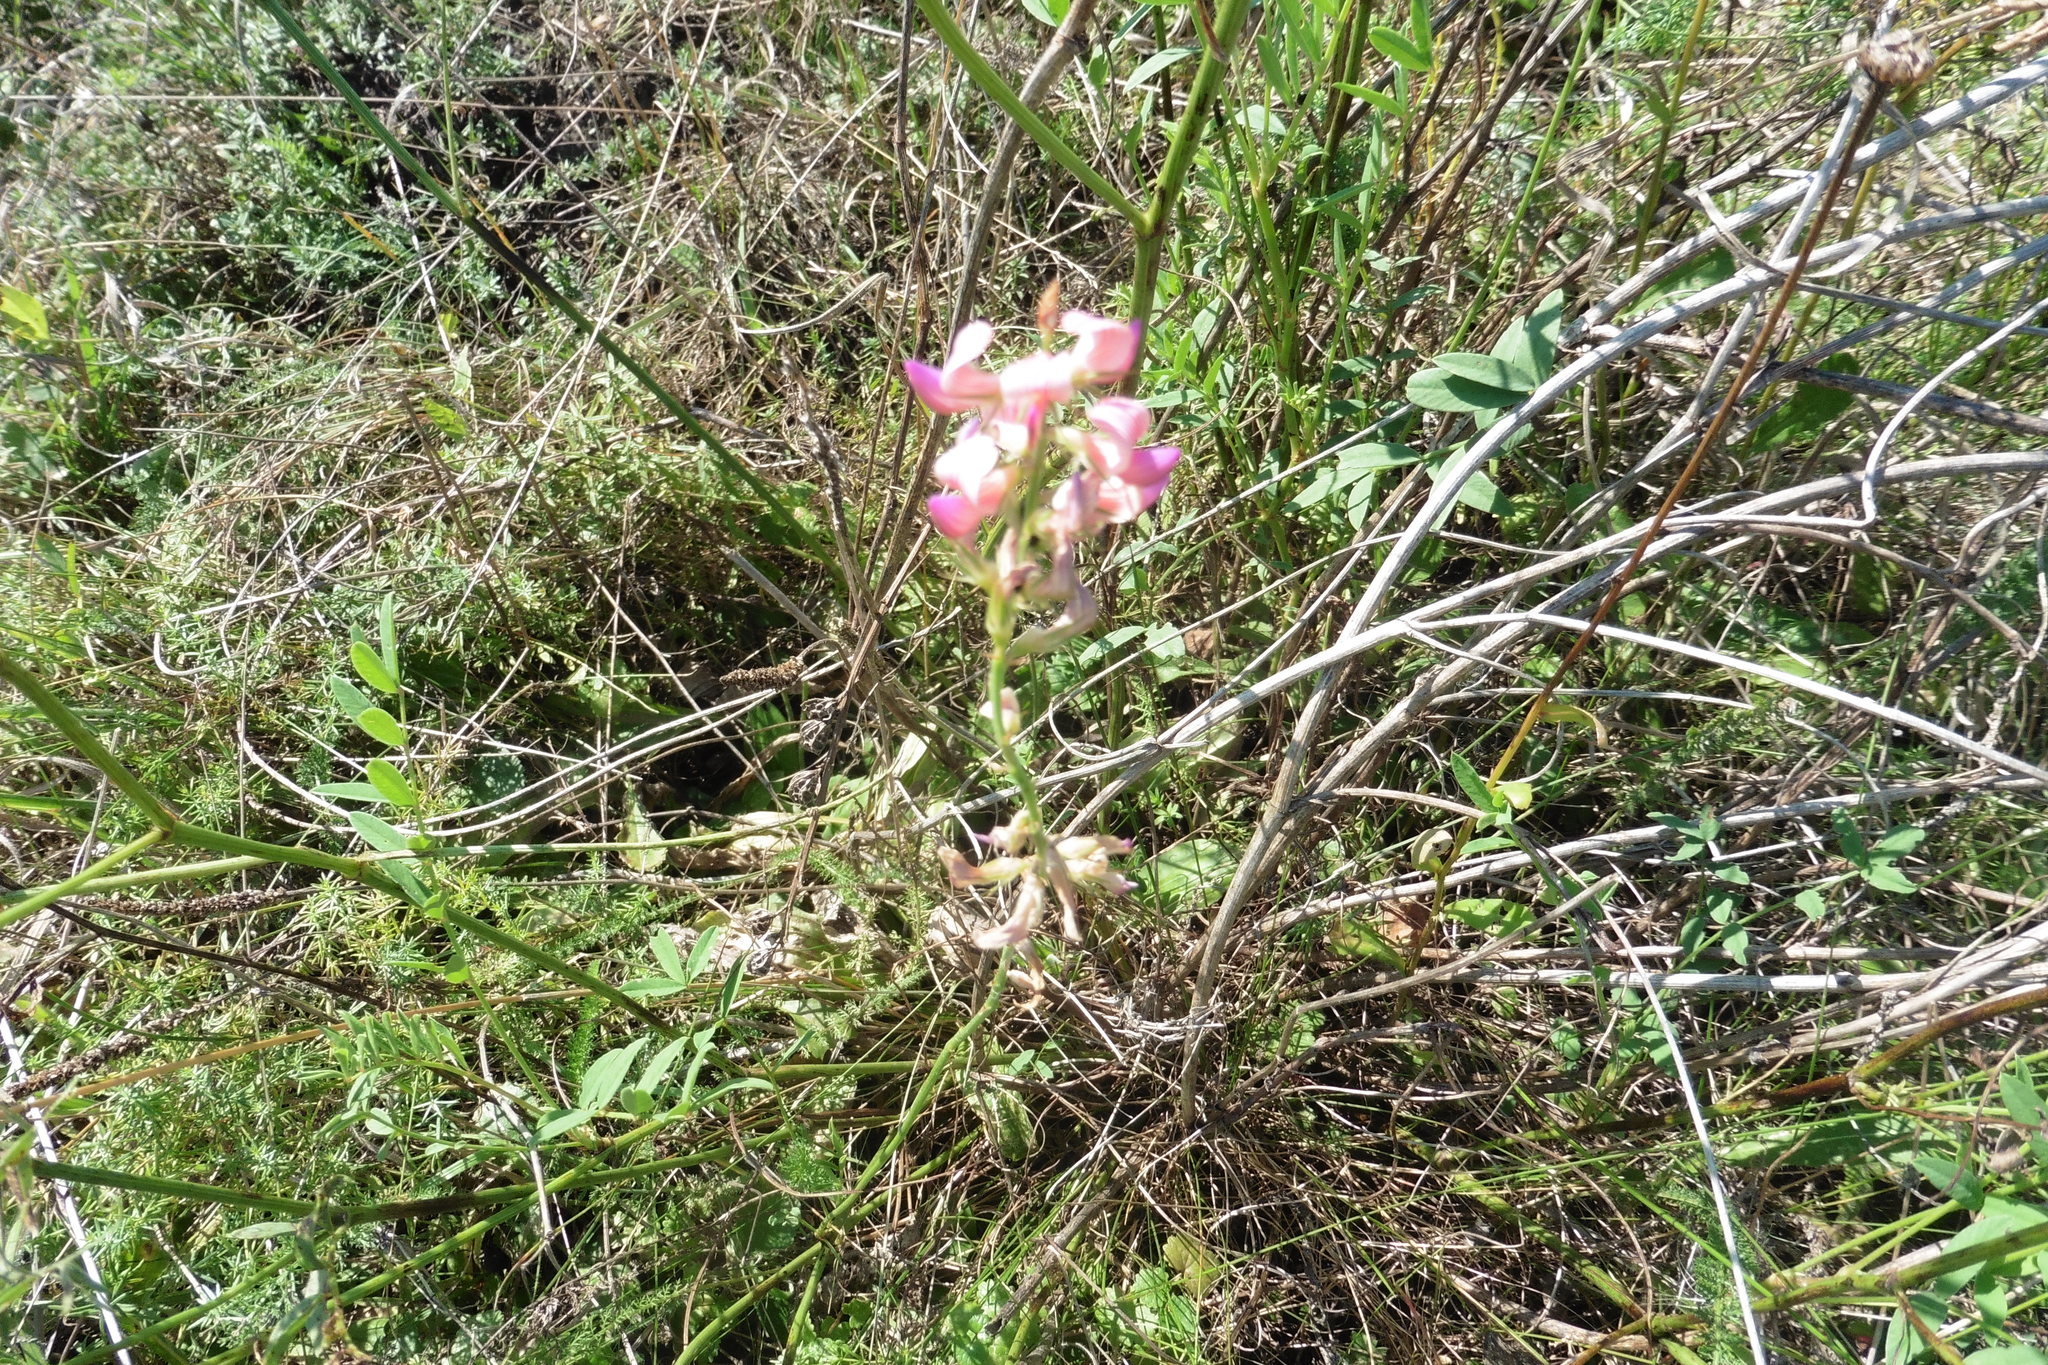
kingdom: Plantae
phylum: Tracheophyta
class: Magnoliopsida
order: Fabales
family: Fabaceae
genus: Onobrychis
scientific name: Onobrychis viciifolia
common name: Sainfoin
